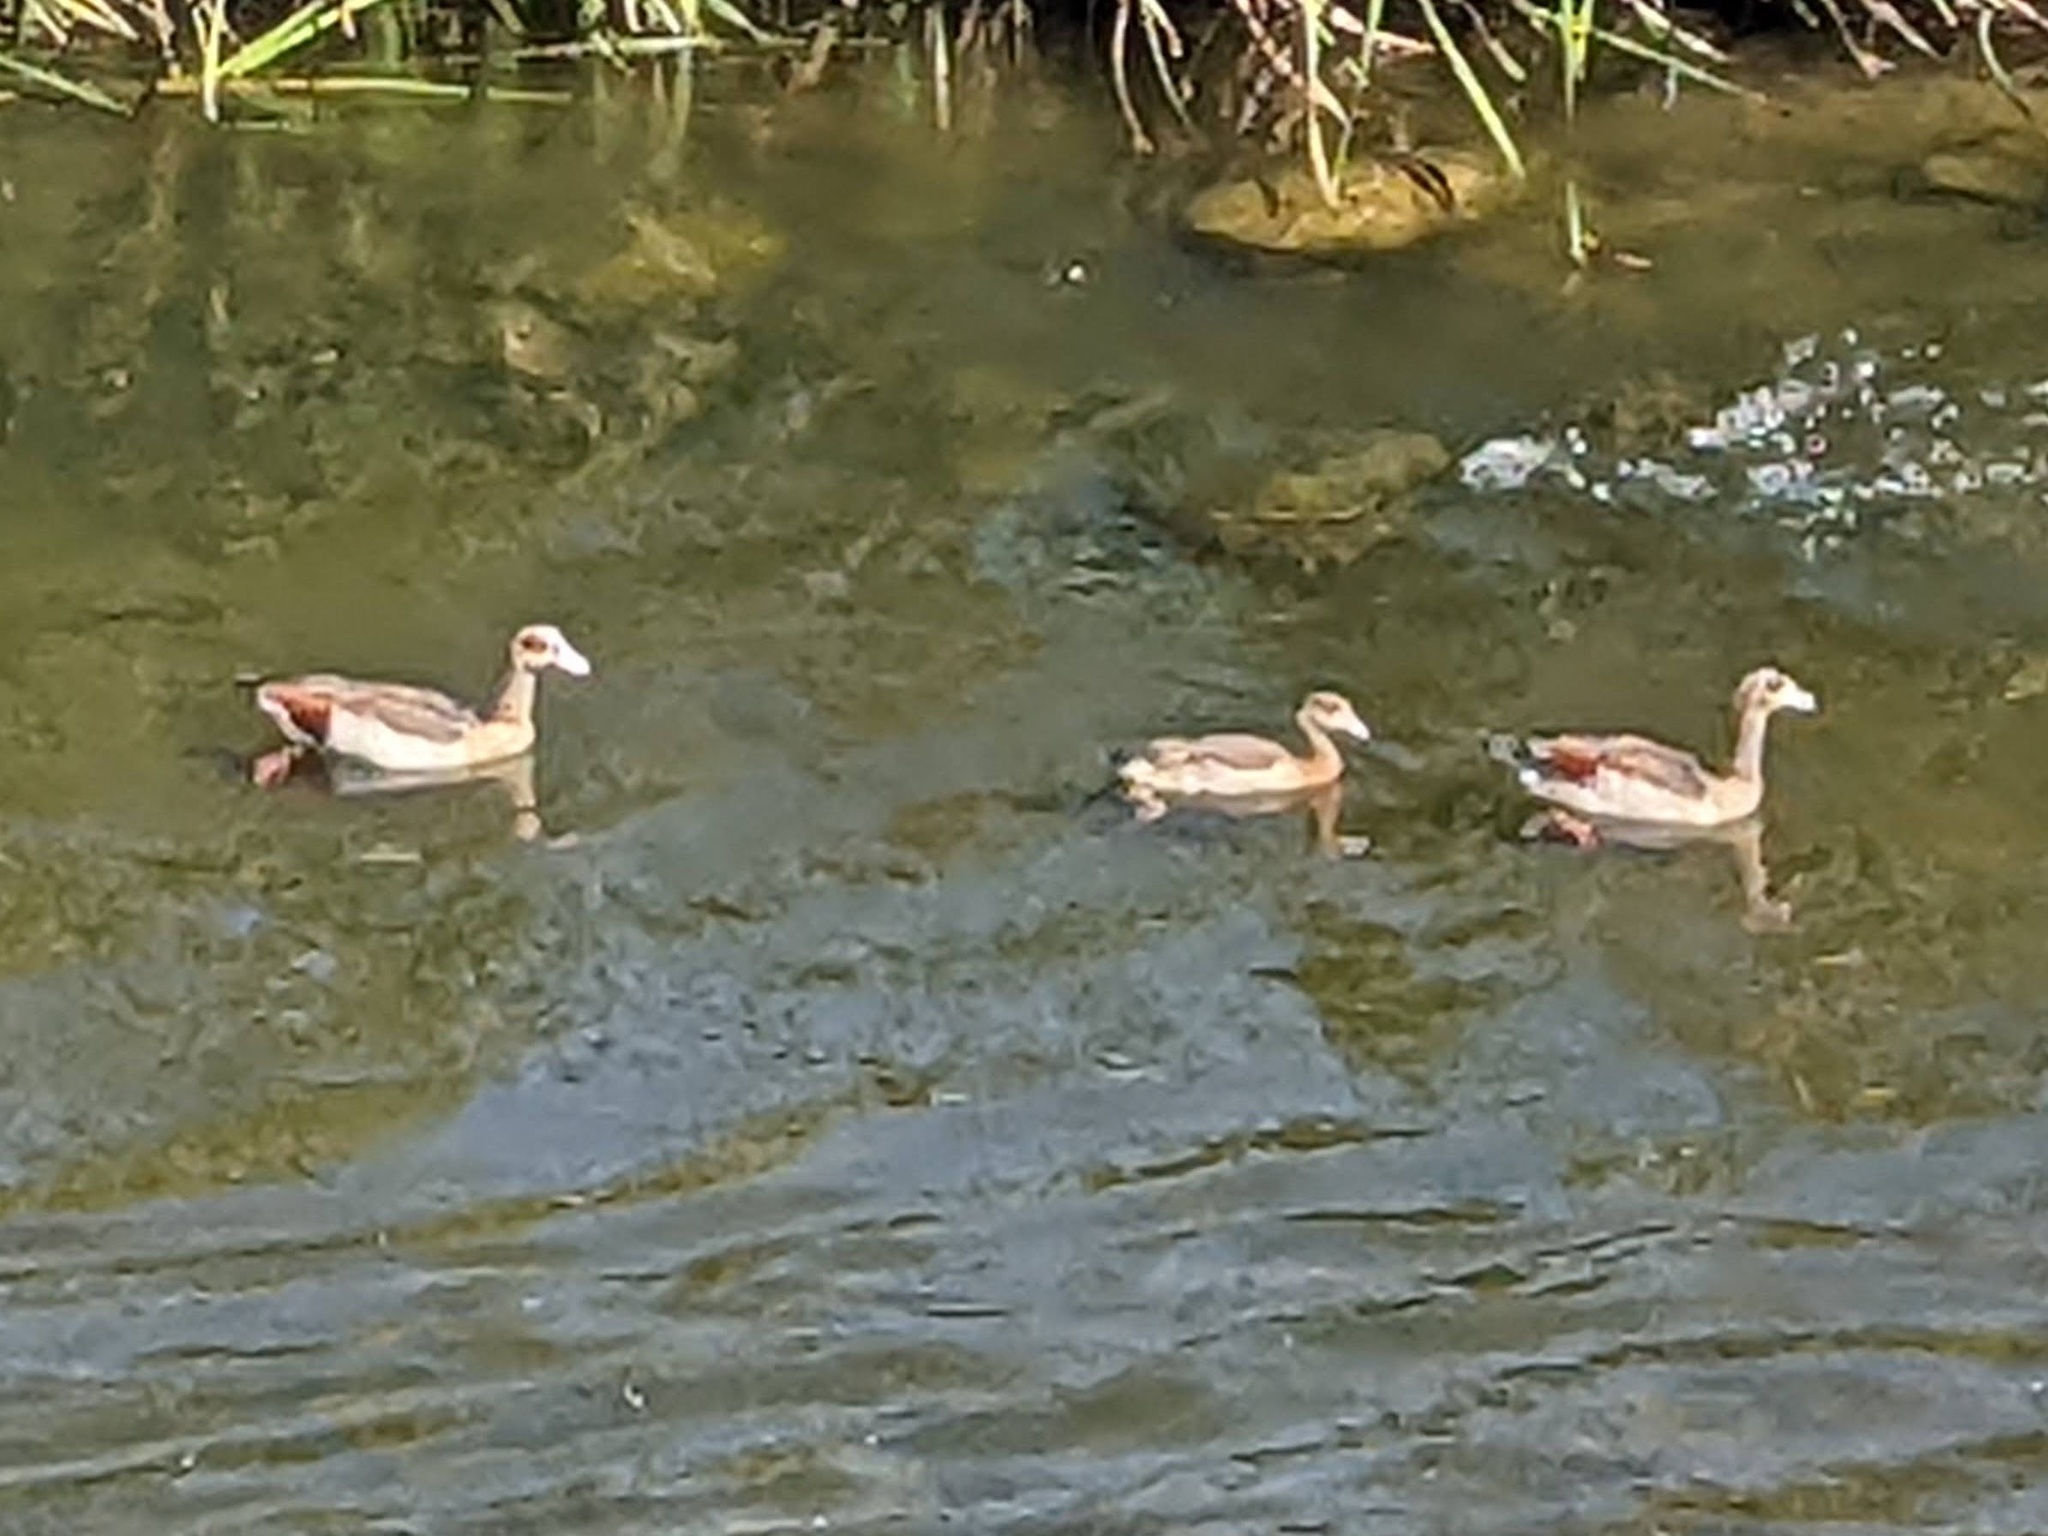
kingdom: Animalia
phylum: Chordata
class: Aves
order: Anseriformes
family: Anatidae
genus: Alopochen
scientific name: Alopochen aegyptiaca
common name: Egyptian goose
